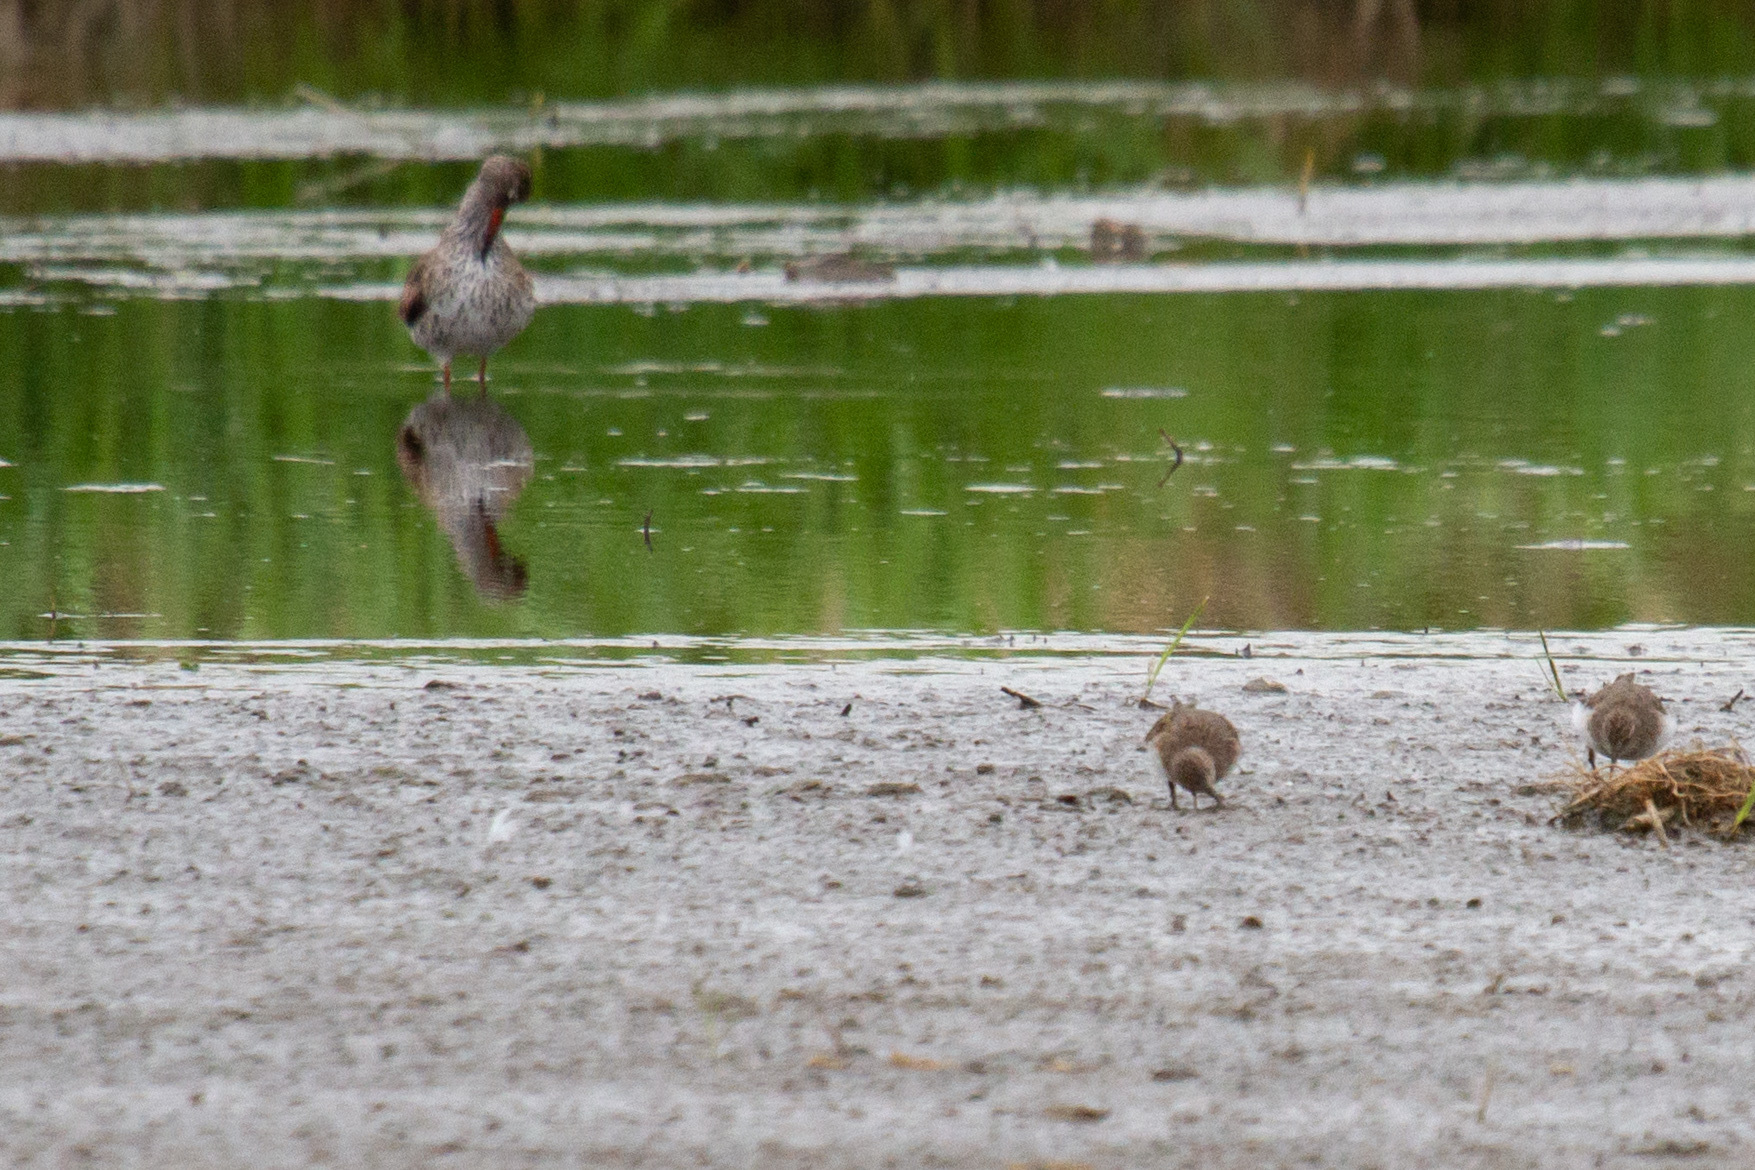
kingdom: Animalia
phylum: Chordata
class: Aves
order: Charadriiformes
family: Scolopacidae
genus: Tringa
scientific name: Tringa totanus
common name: Common redshank
